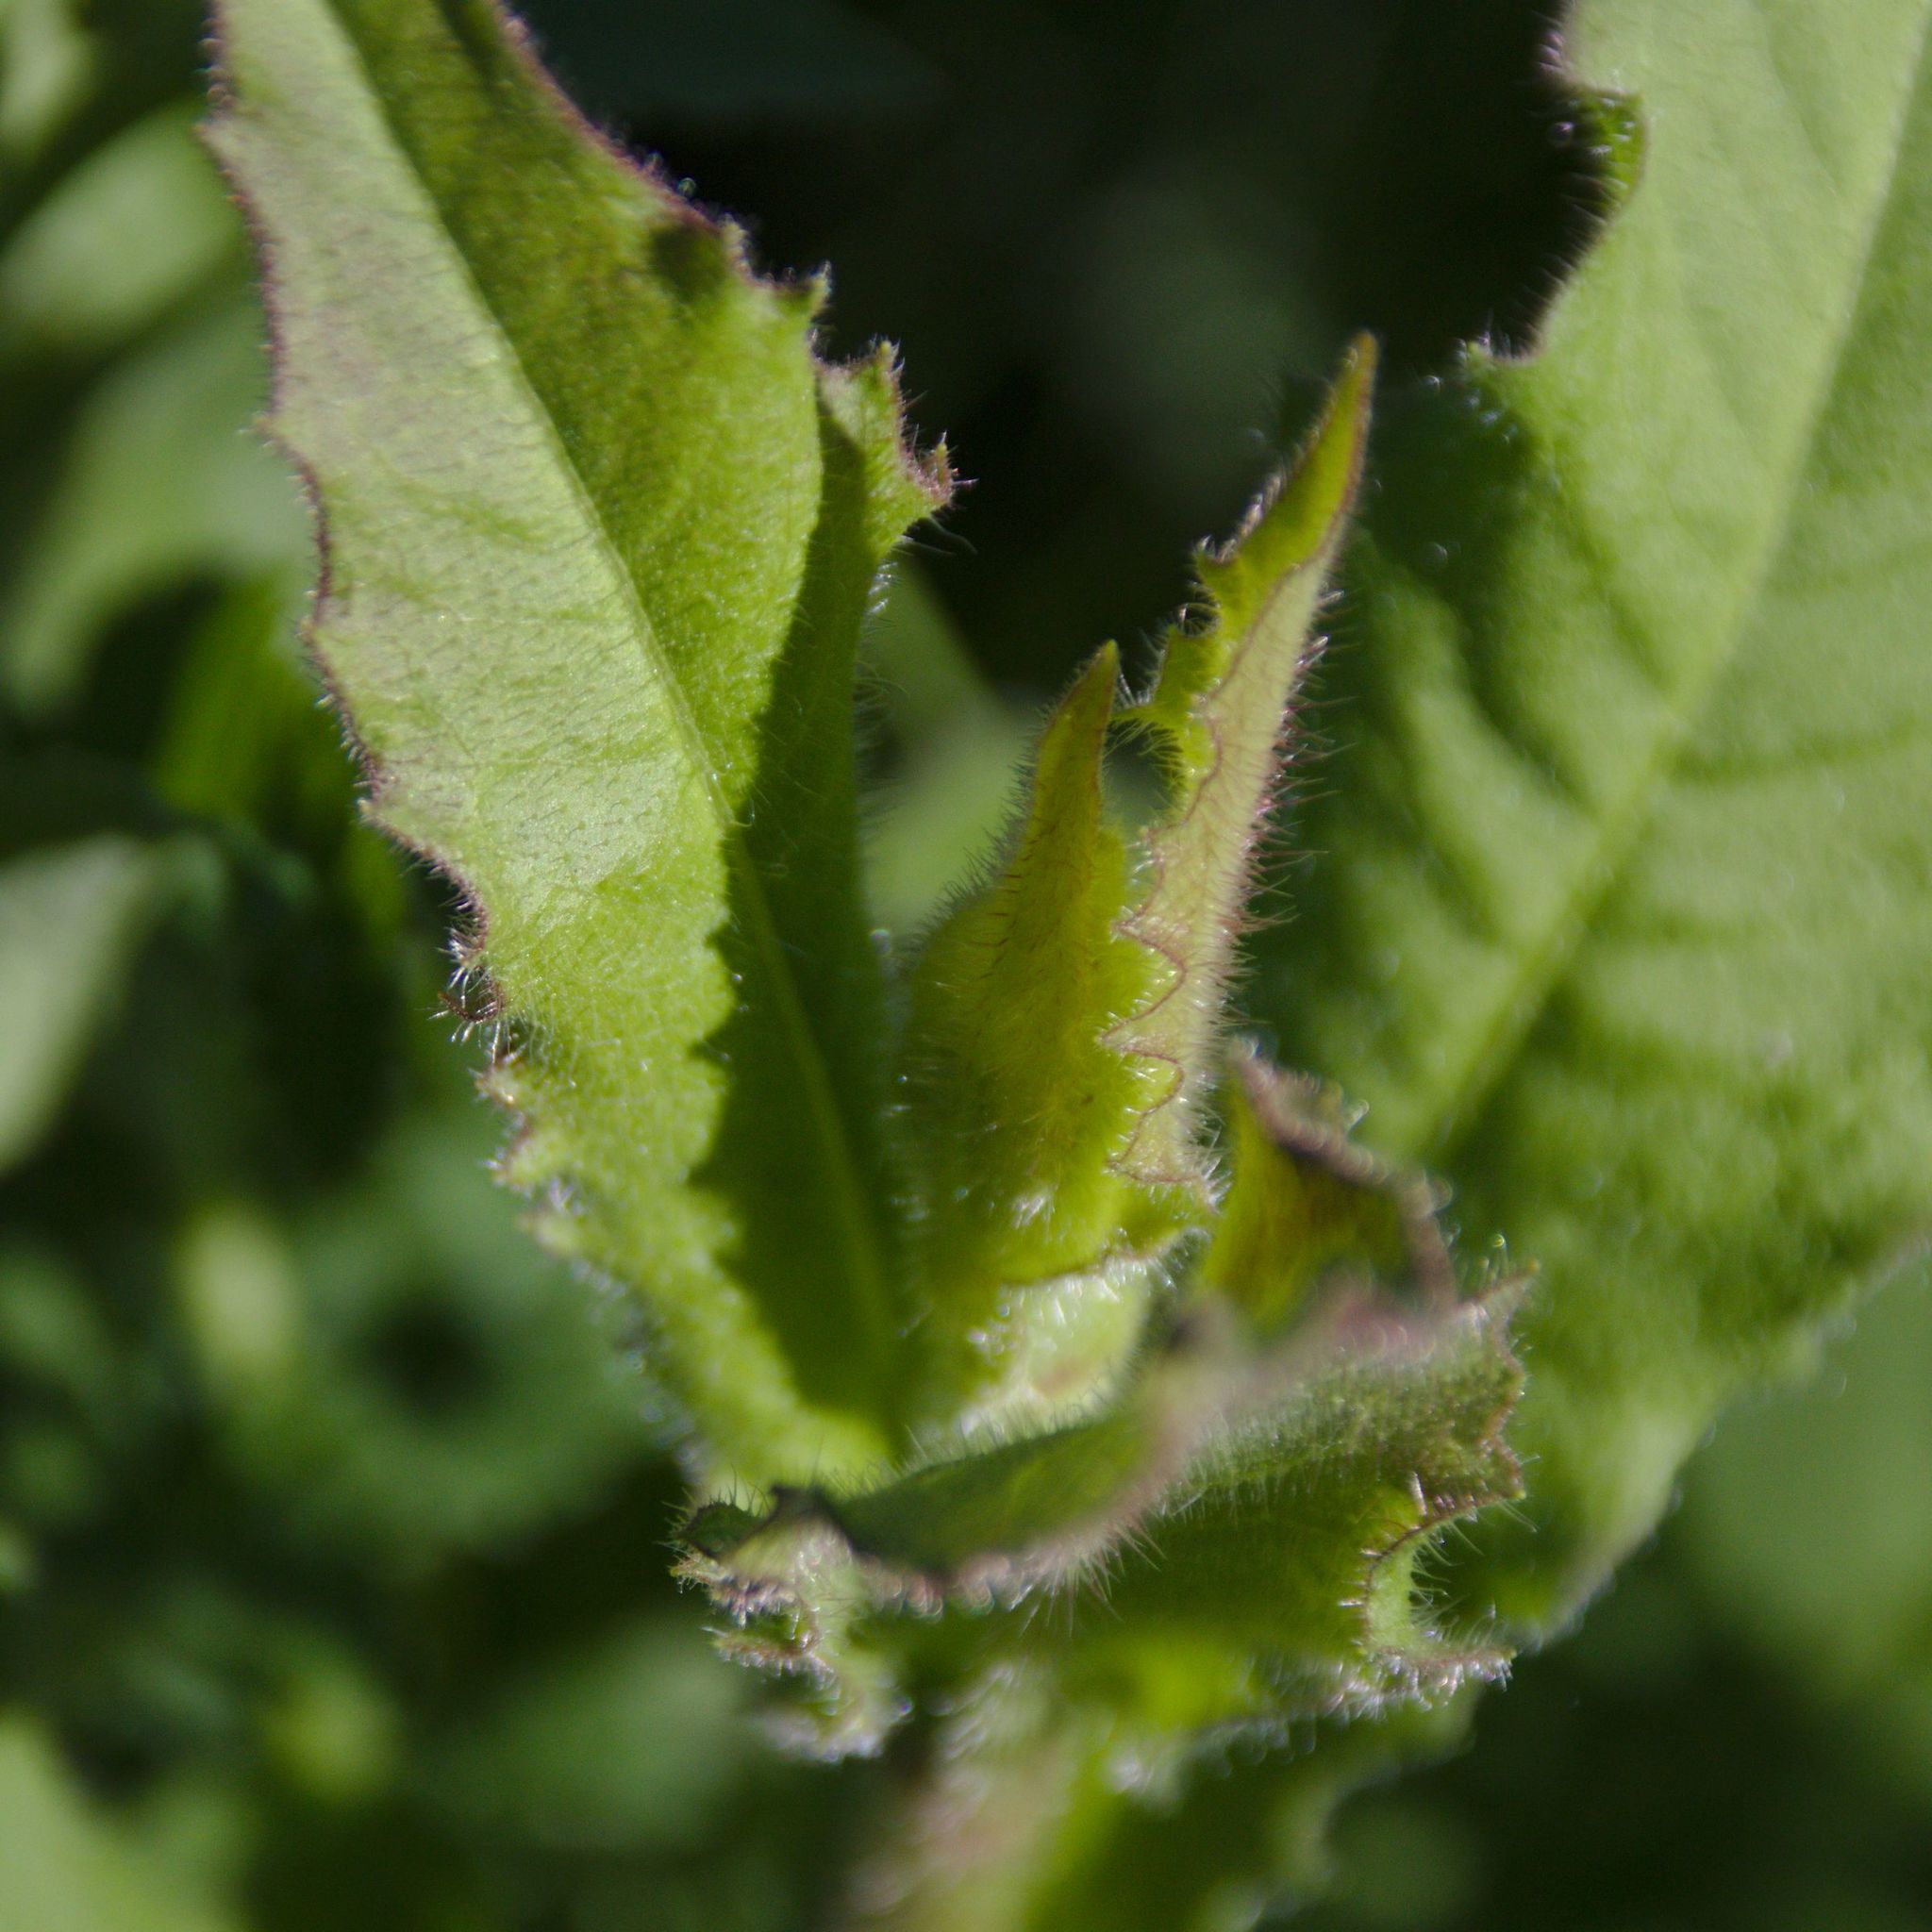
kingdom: Plantae
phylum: Tracheophyta
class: Magnoliopsida
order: Asterales
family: Asteraceae
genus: Picris
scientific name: Picris hieracioides
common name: Hawkweed oxtongue
